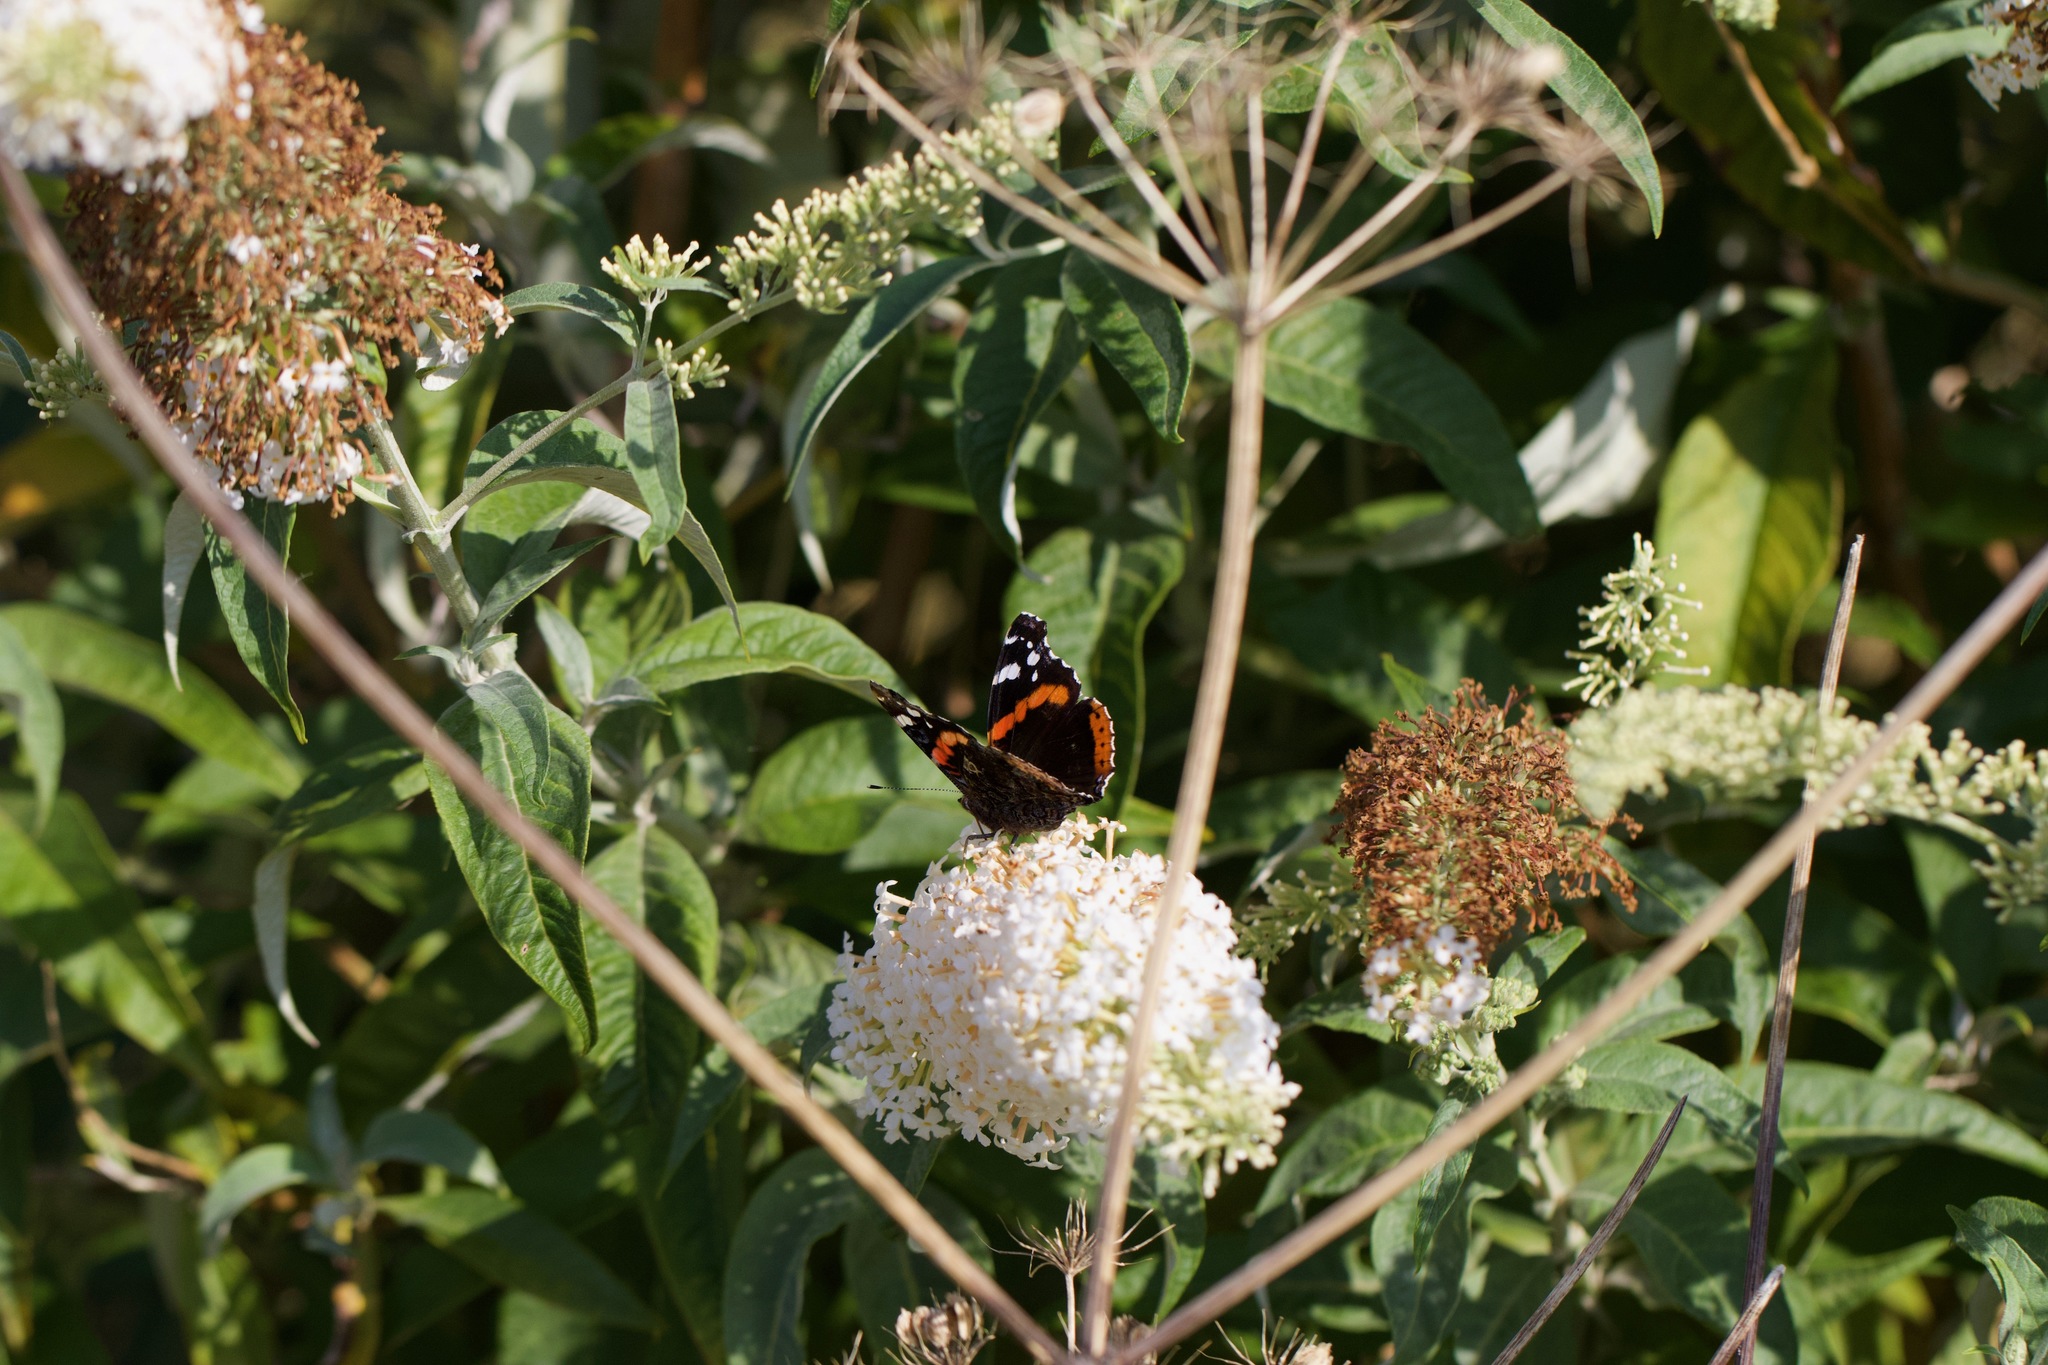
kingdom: Animalia
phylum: Arthropoda
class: Insecta
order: Lepidoptera
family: Nymphalidae
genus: Vanessa
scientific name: Vanessa atalanta
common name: Red admiral
